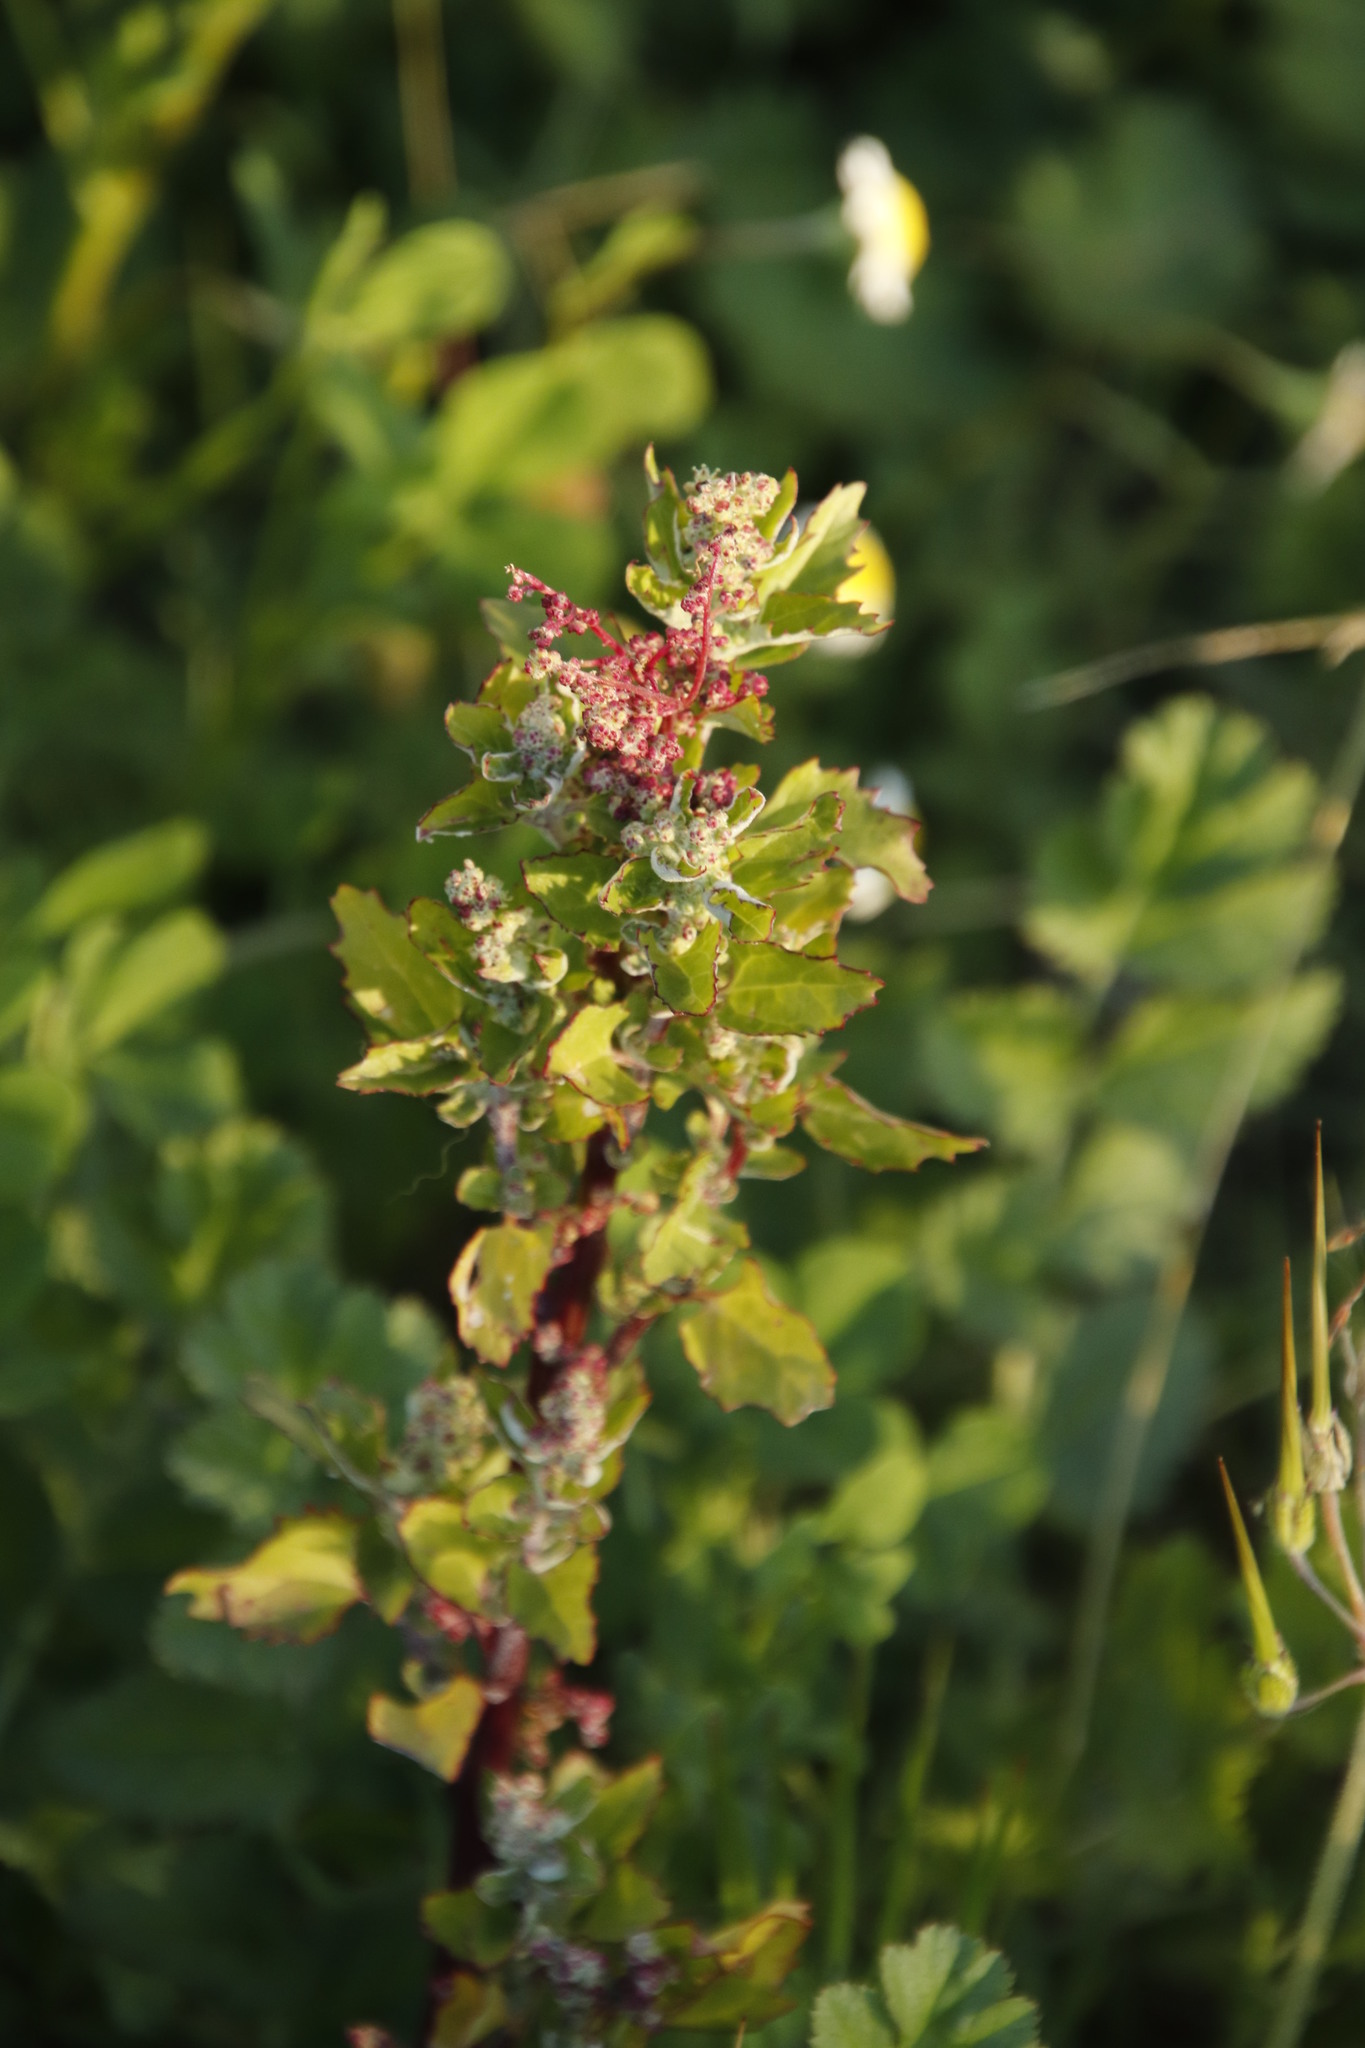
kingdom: Plantae
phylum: Tracheophyta
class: Magnoliopsida
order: Caryophyllales
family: Amaranthaceae
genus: Chenopodiastrum
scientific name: Chenopodiastrum murale
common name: Sowbane
